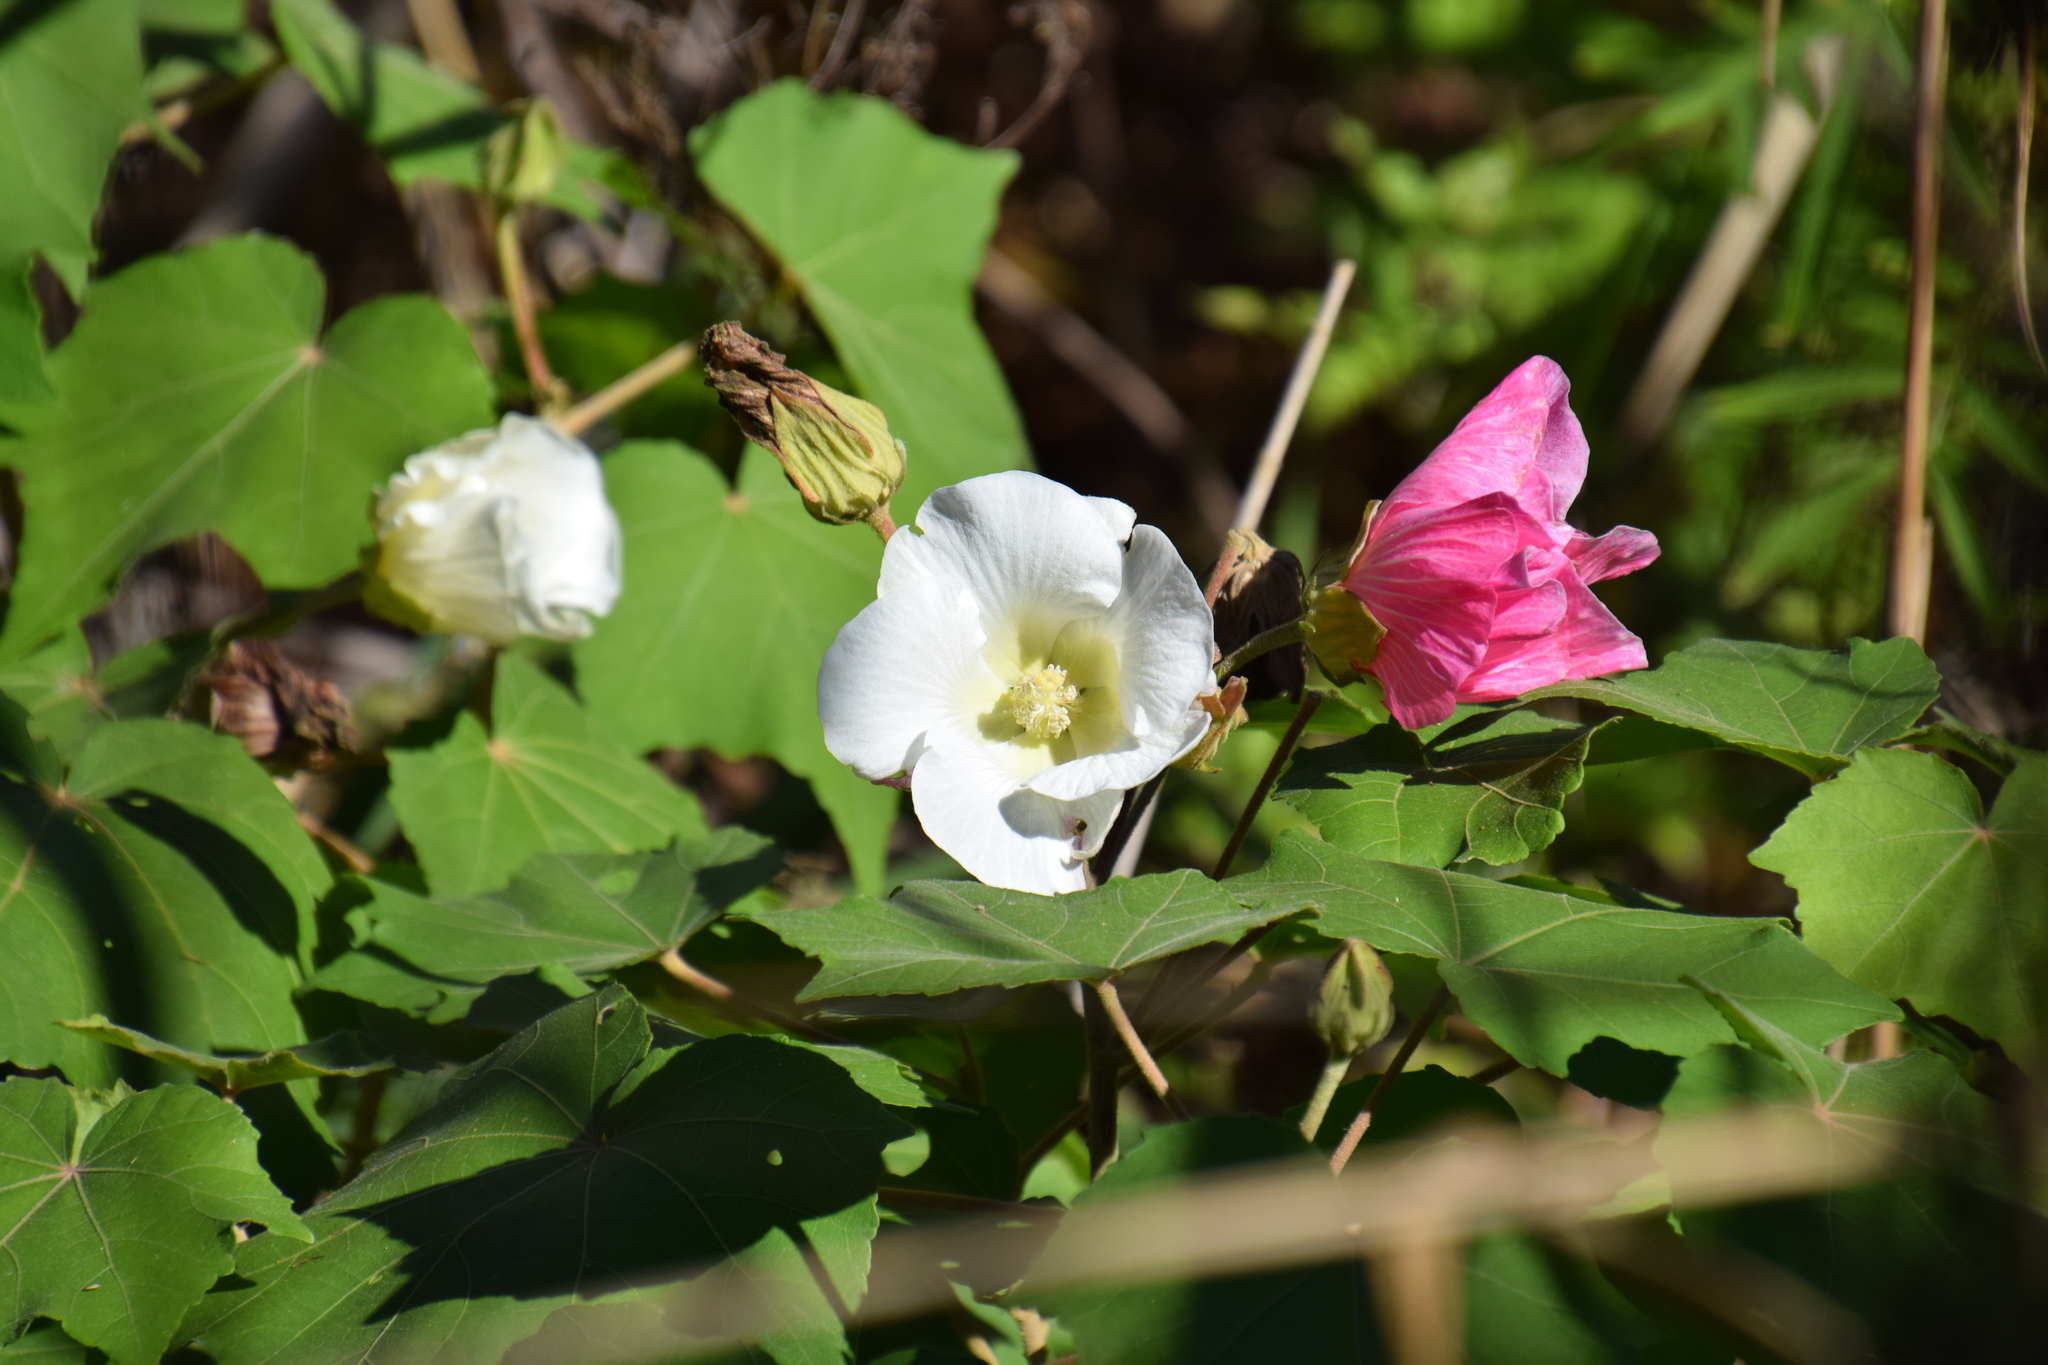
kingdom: Plantae
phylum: Tracheophyta
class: Magnoliopsida
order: Malvales
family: Malvaceae
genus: Hibiscus
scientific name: Hibiscus mutabilis
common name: Dixie rosemallow
